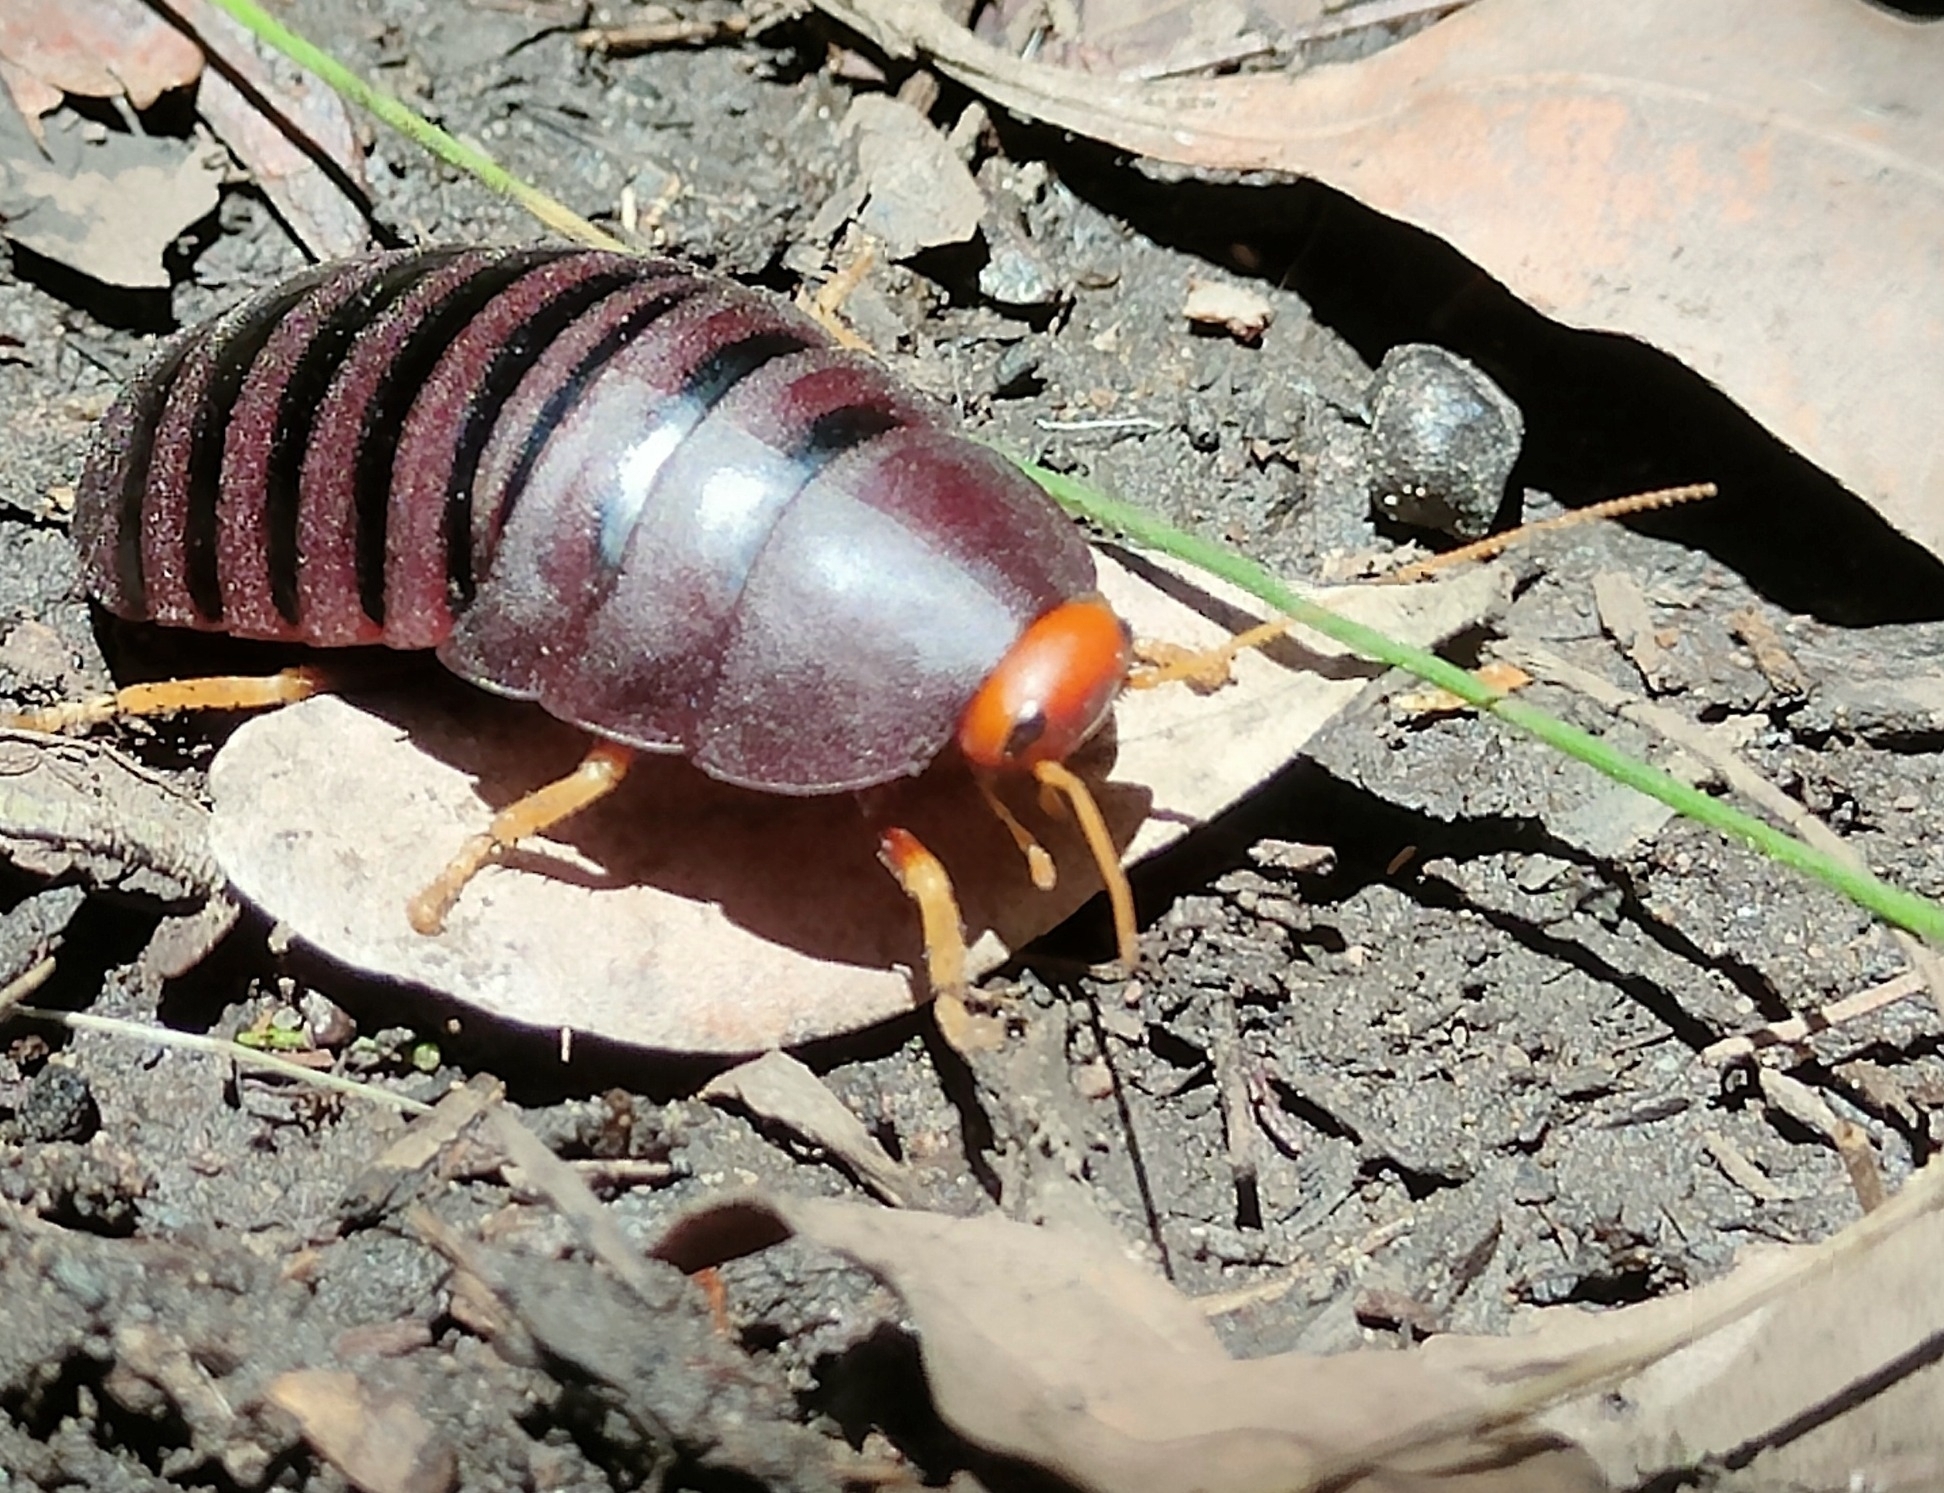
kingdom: Animalia
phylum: Arthropoda
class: Insecta
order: Blattodea
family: Blaberidae
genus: Aptera
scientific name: Aptera fusca
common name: Cape mountain cockroach
